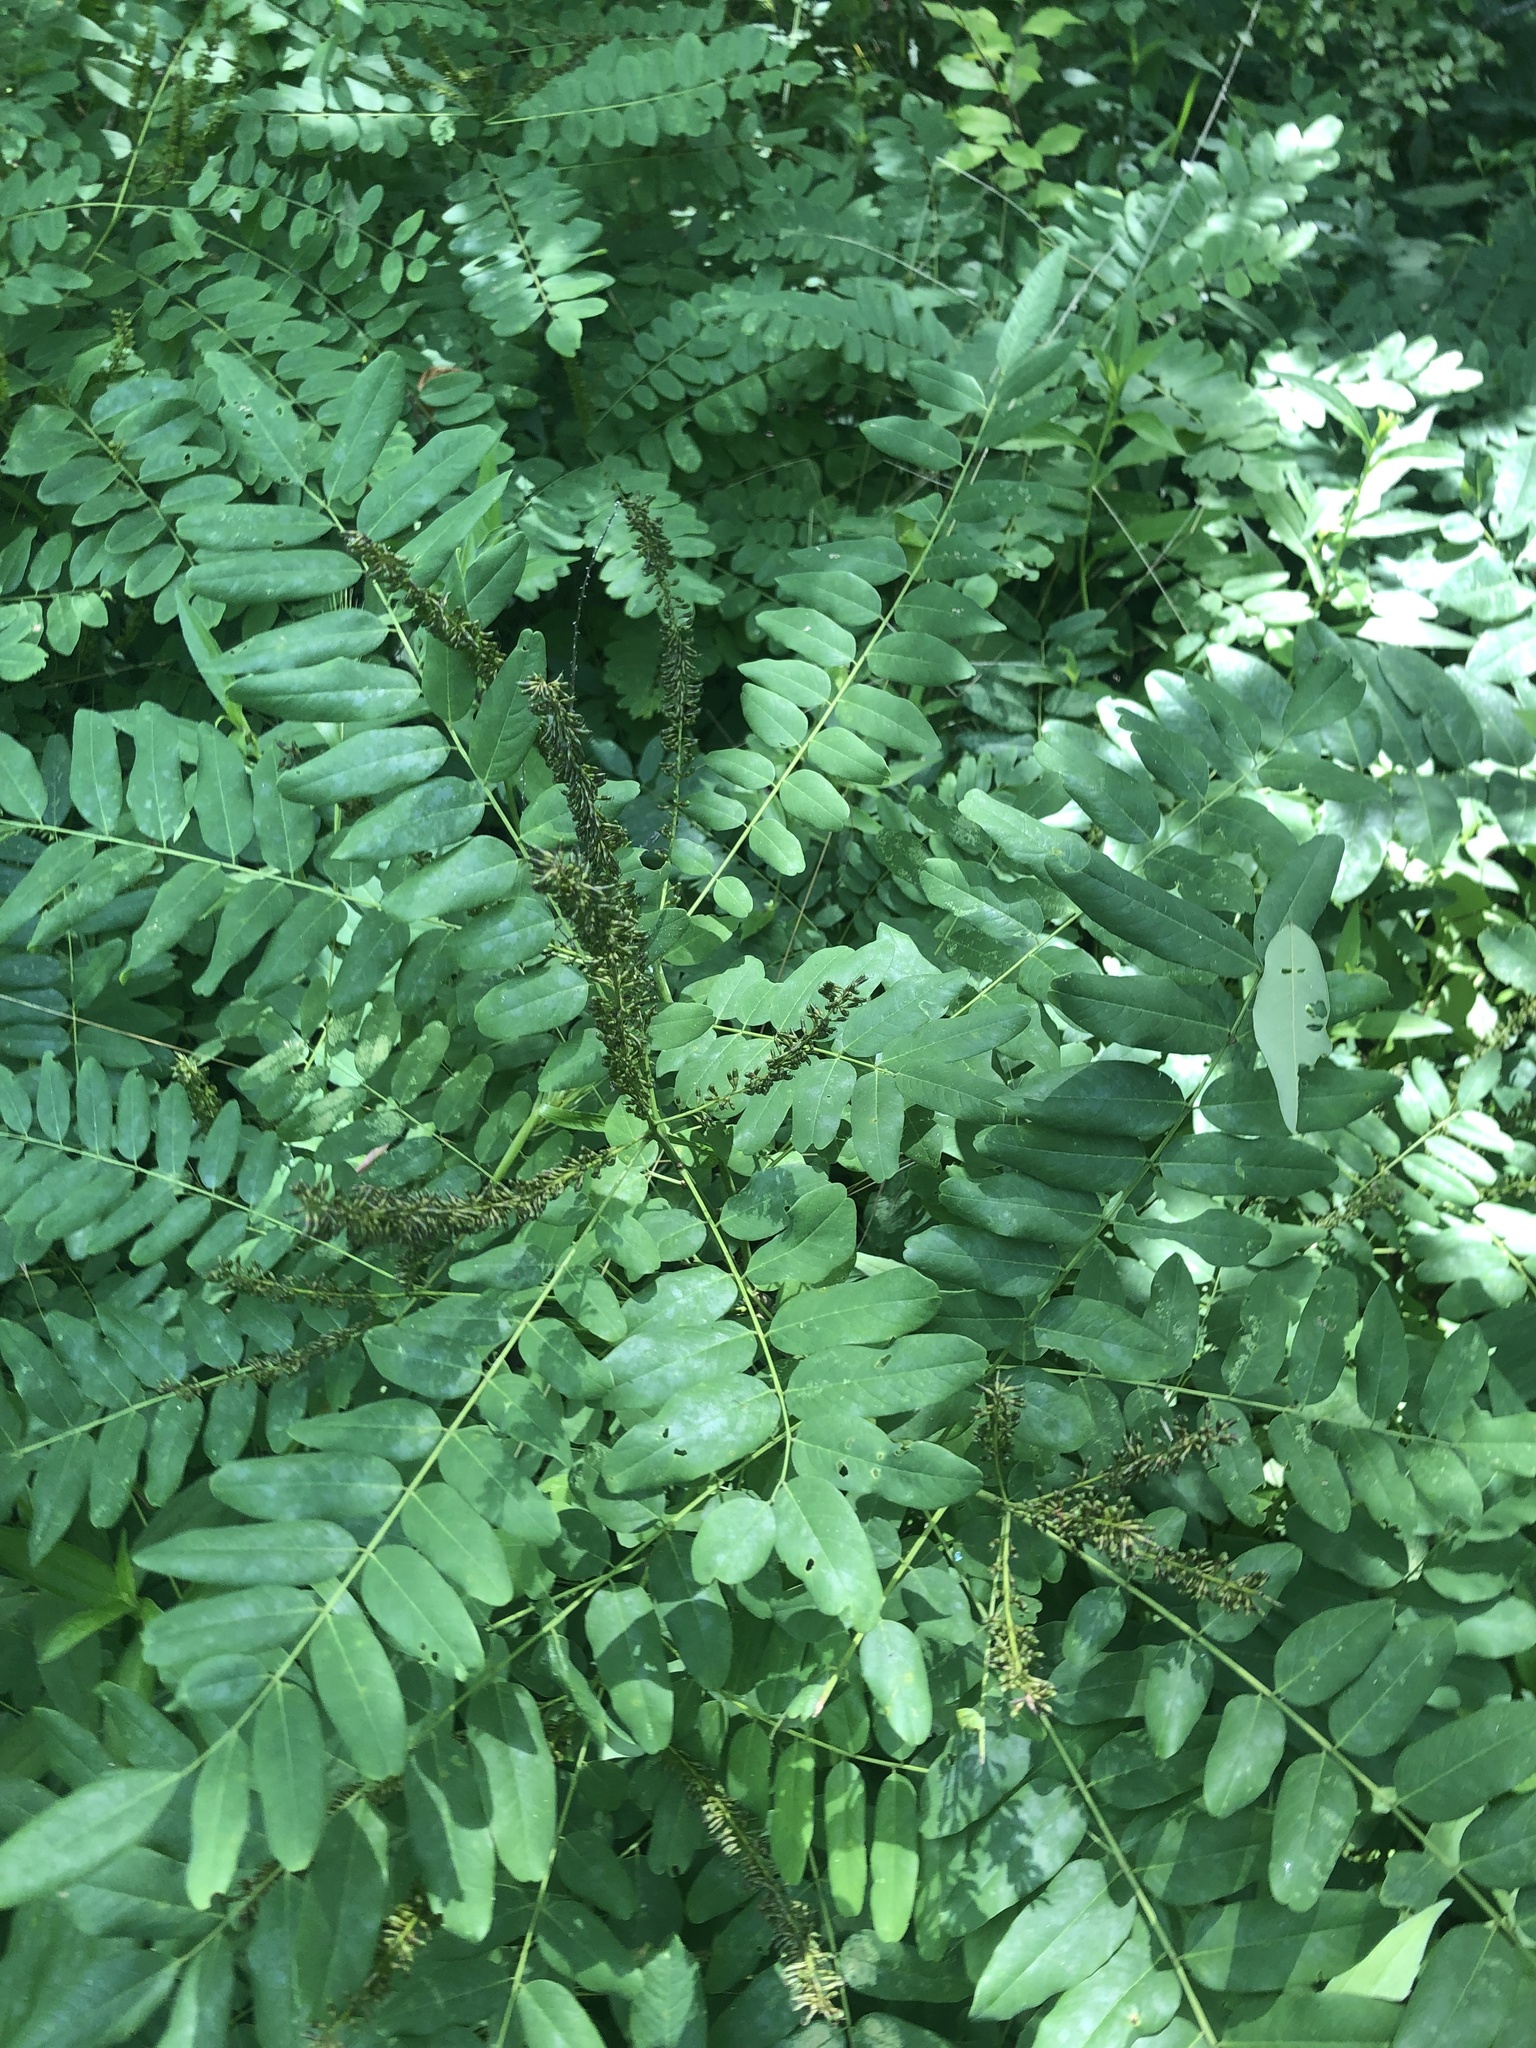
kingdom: Plantae
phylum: Tracheophyta
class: Magnoliopsida
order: Fabales
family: Fabaceae
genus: Amorpha
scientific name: Amorpha fruticosa
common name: False indigo
